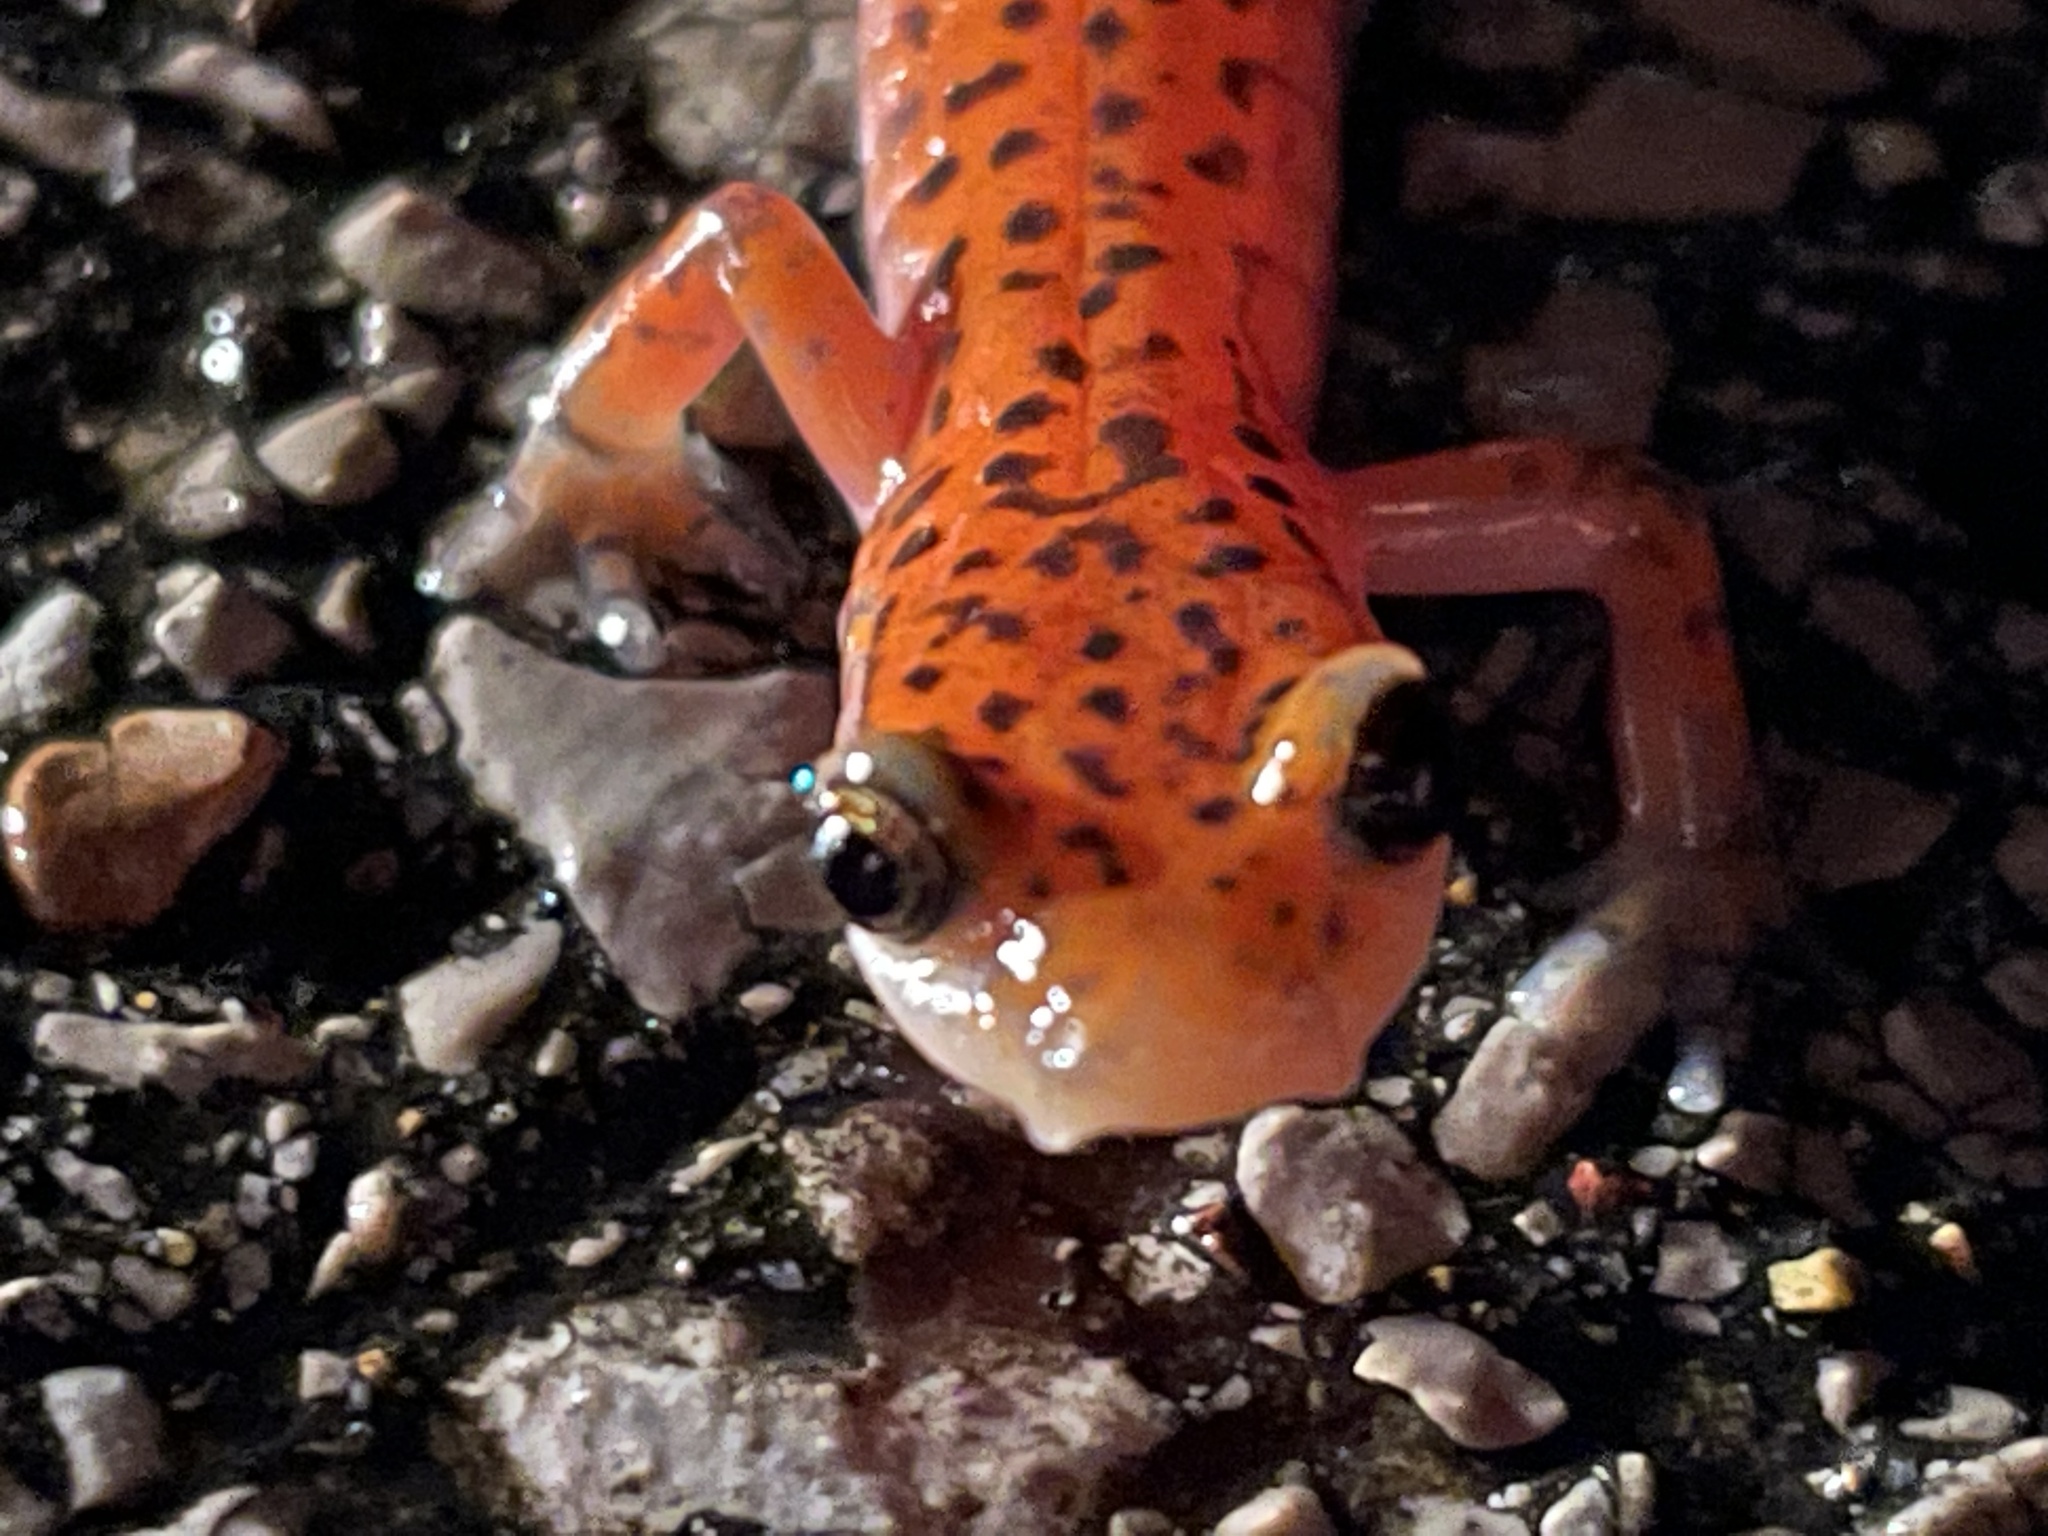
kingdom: Animalia
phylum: Chordata
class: Amphibia
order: Caudata
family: Plethodontidae
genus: Eurycea
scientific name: Eurycea lucifuga
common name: Cave salamander
